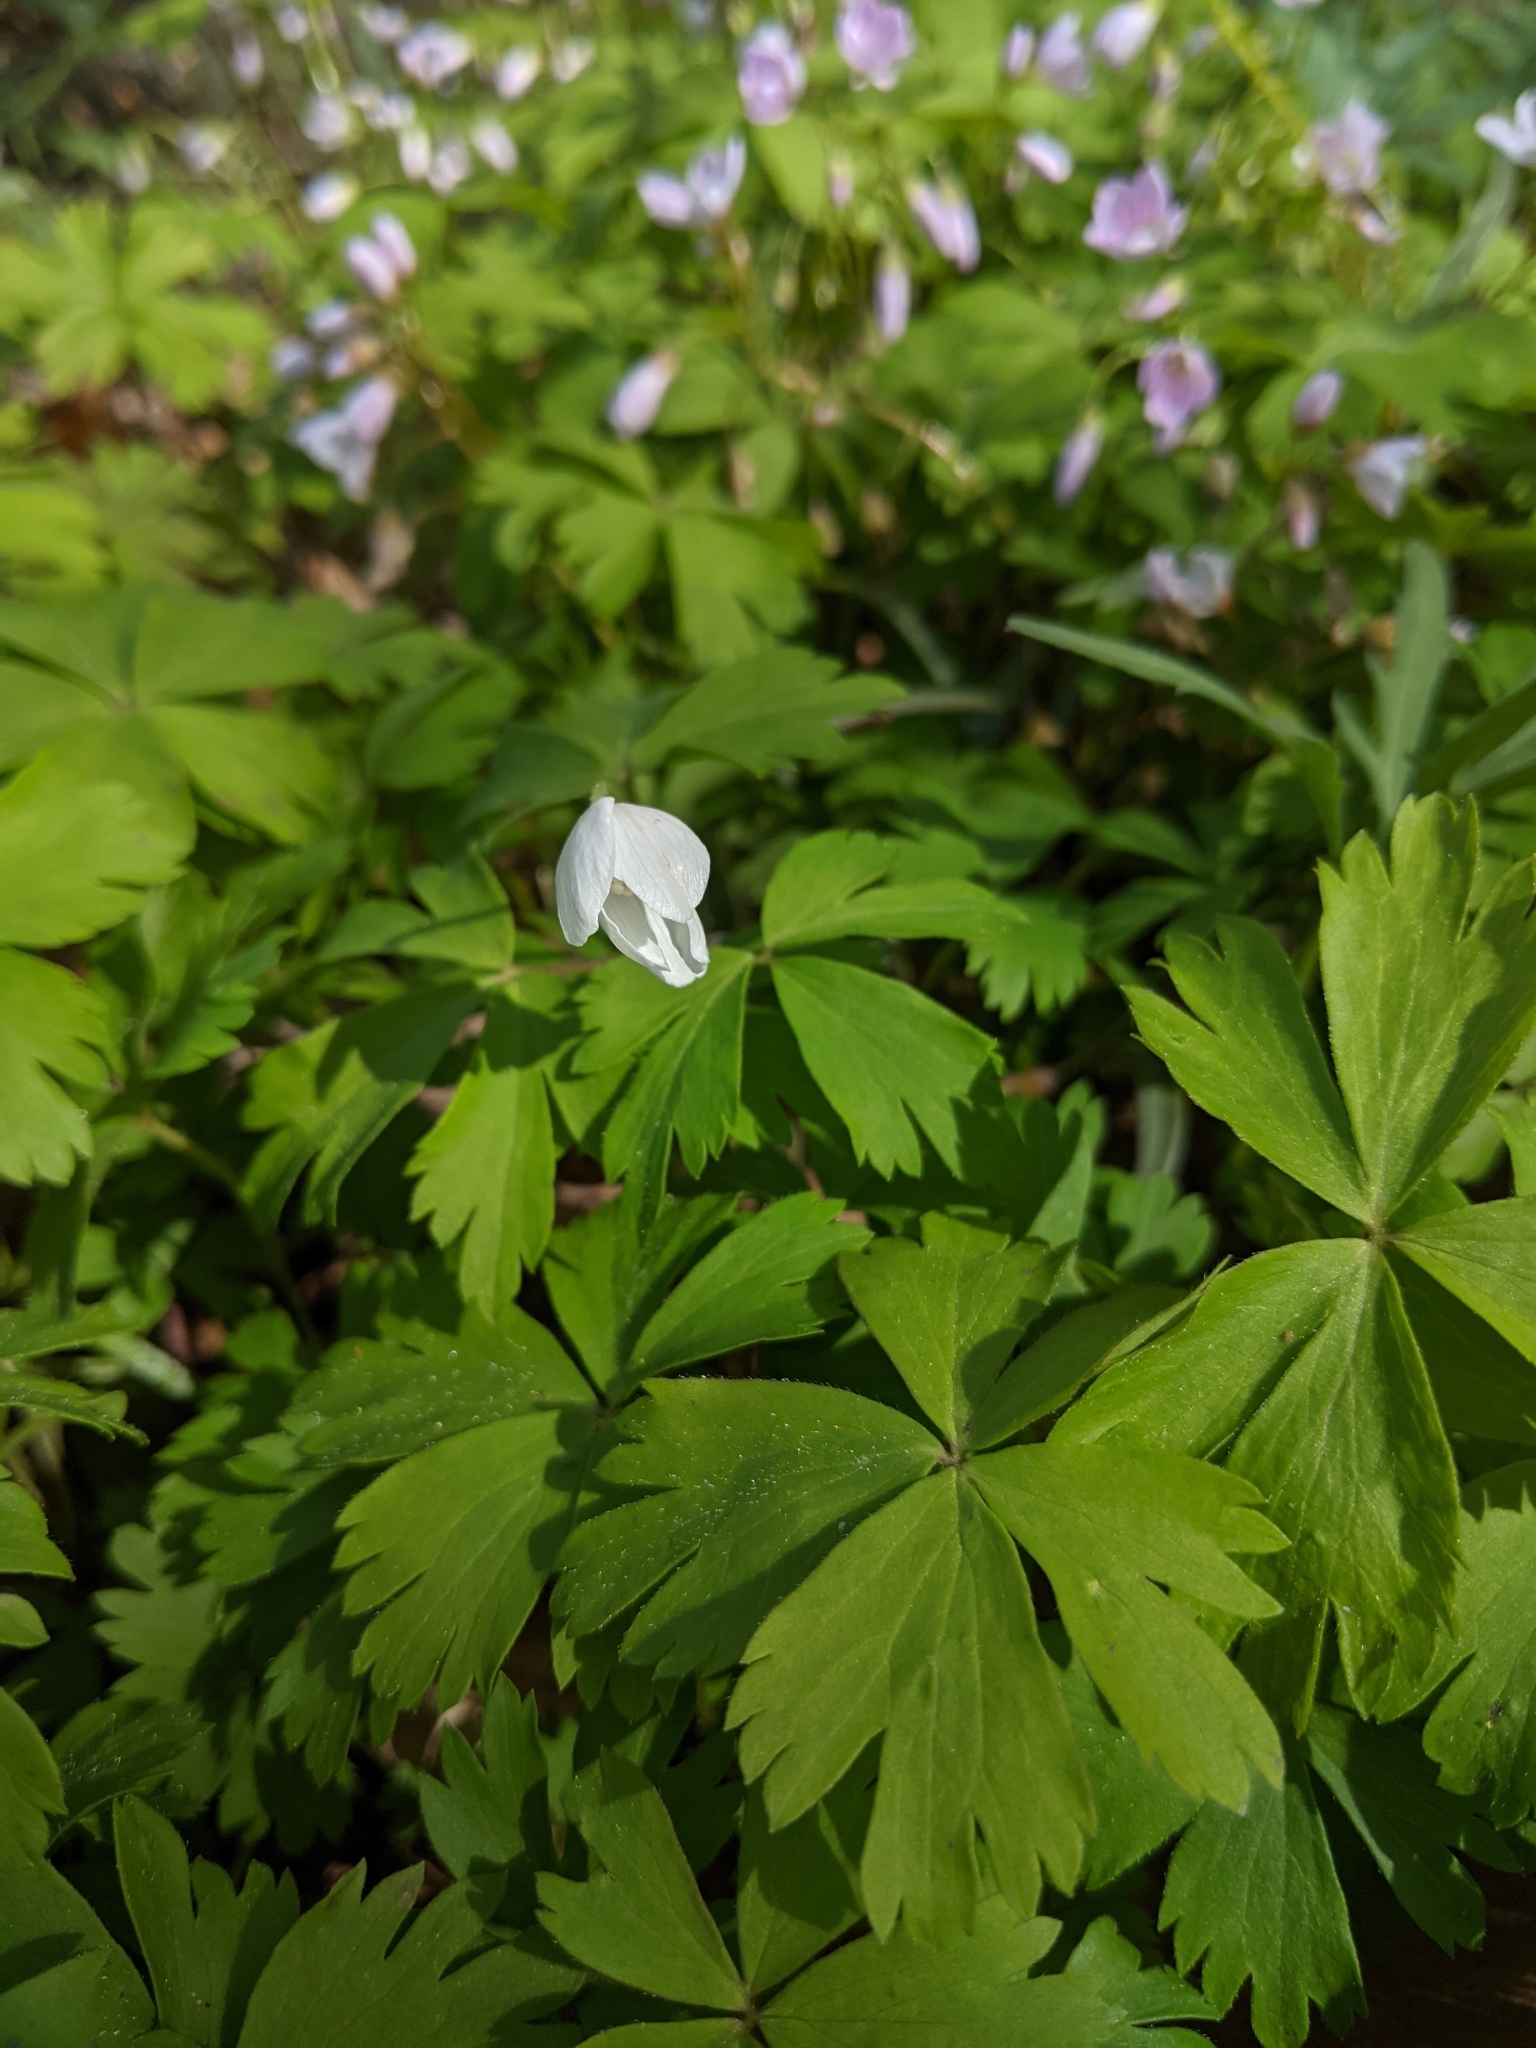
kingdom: Plantae
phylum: Tracheophyta
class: Magnoliopsida
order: Ranunculales
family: Ranunculaceae
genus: Anemone
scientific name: Anemone quinquefolia
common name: Wood anemone
